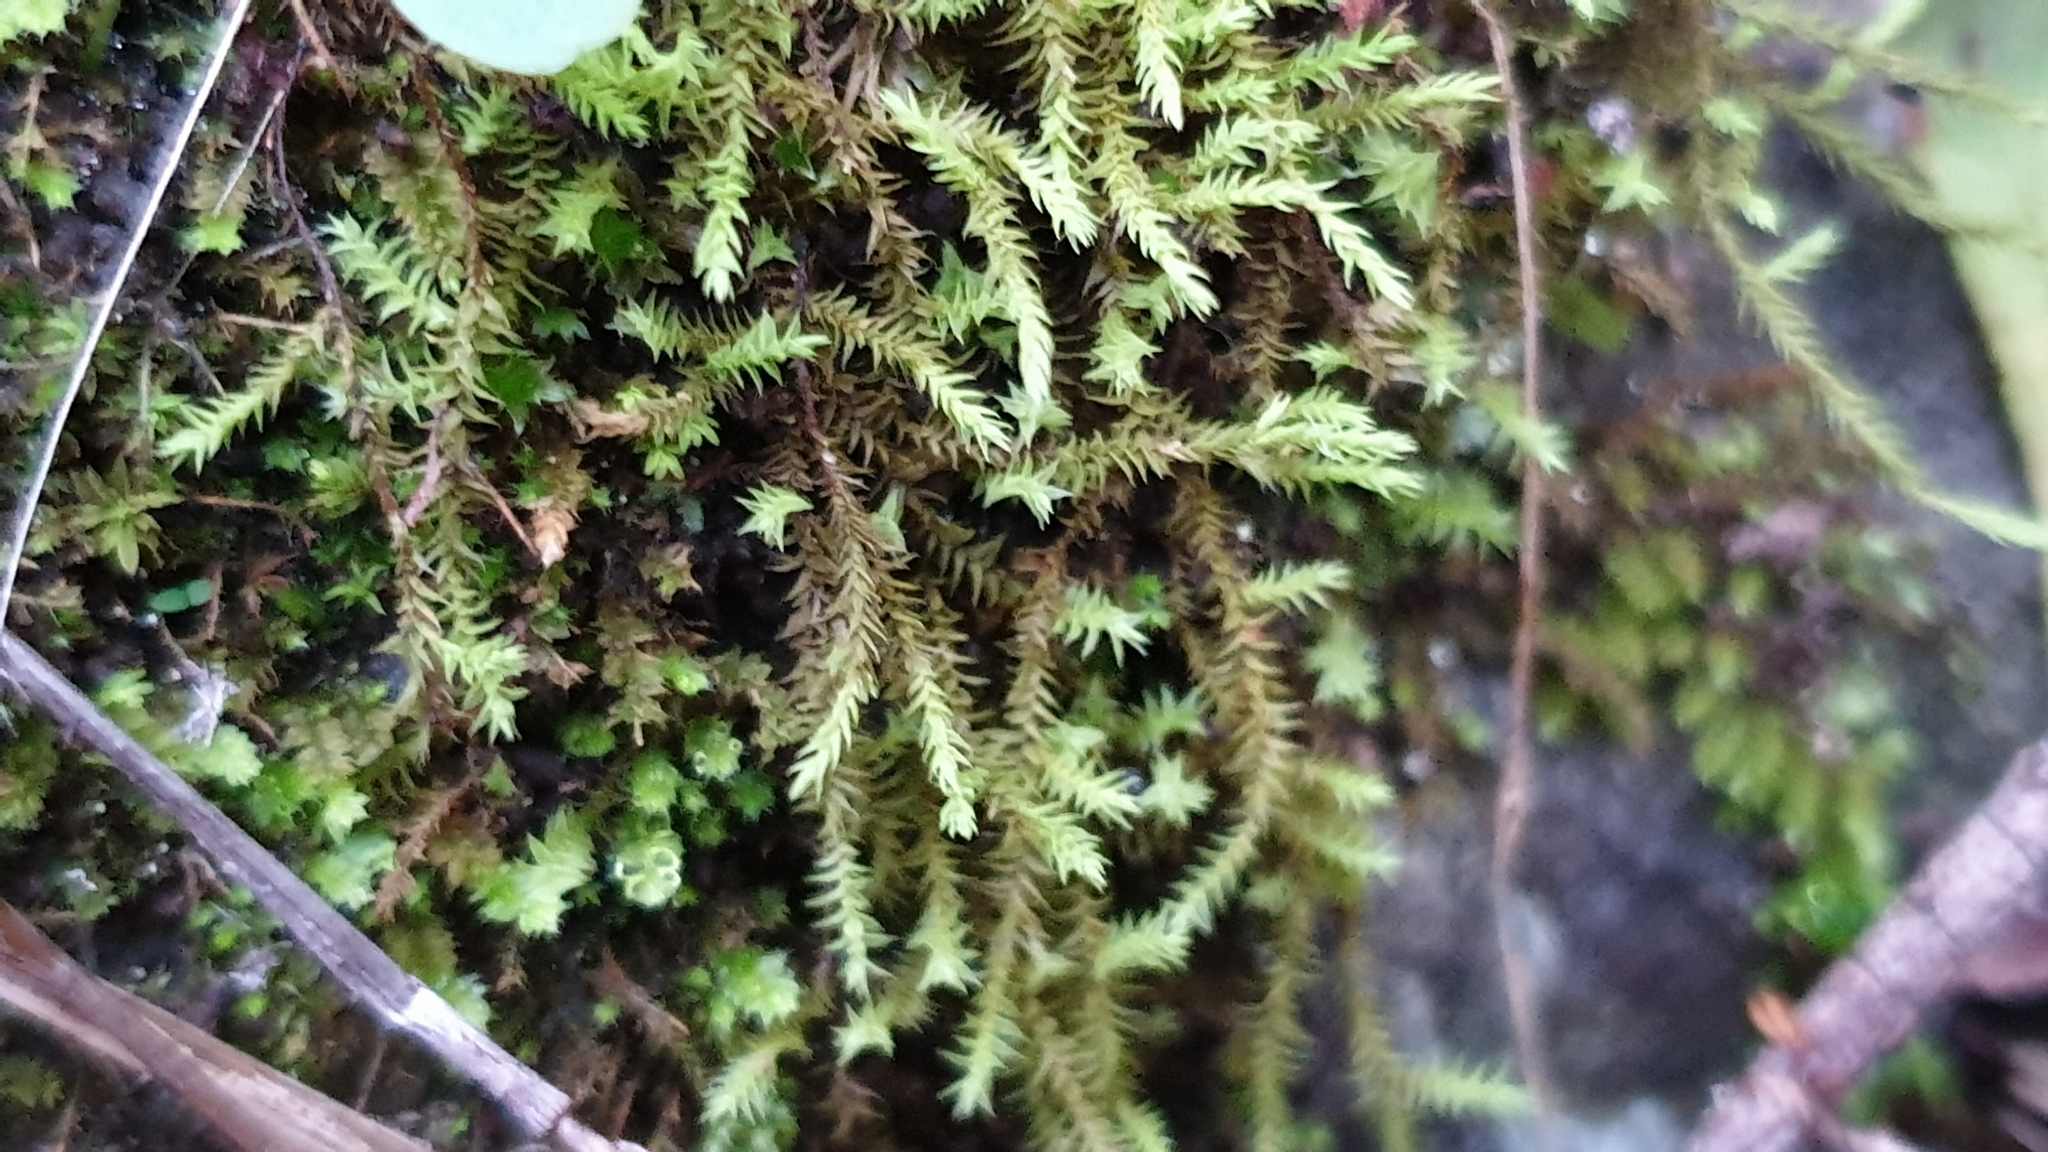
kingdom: Plantae
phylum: Bryophyta
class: Bryopsida
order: Pottiales
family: Pottiaceae
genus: Triquetrella
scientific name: Triquetrella papillata
